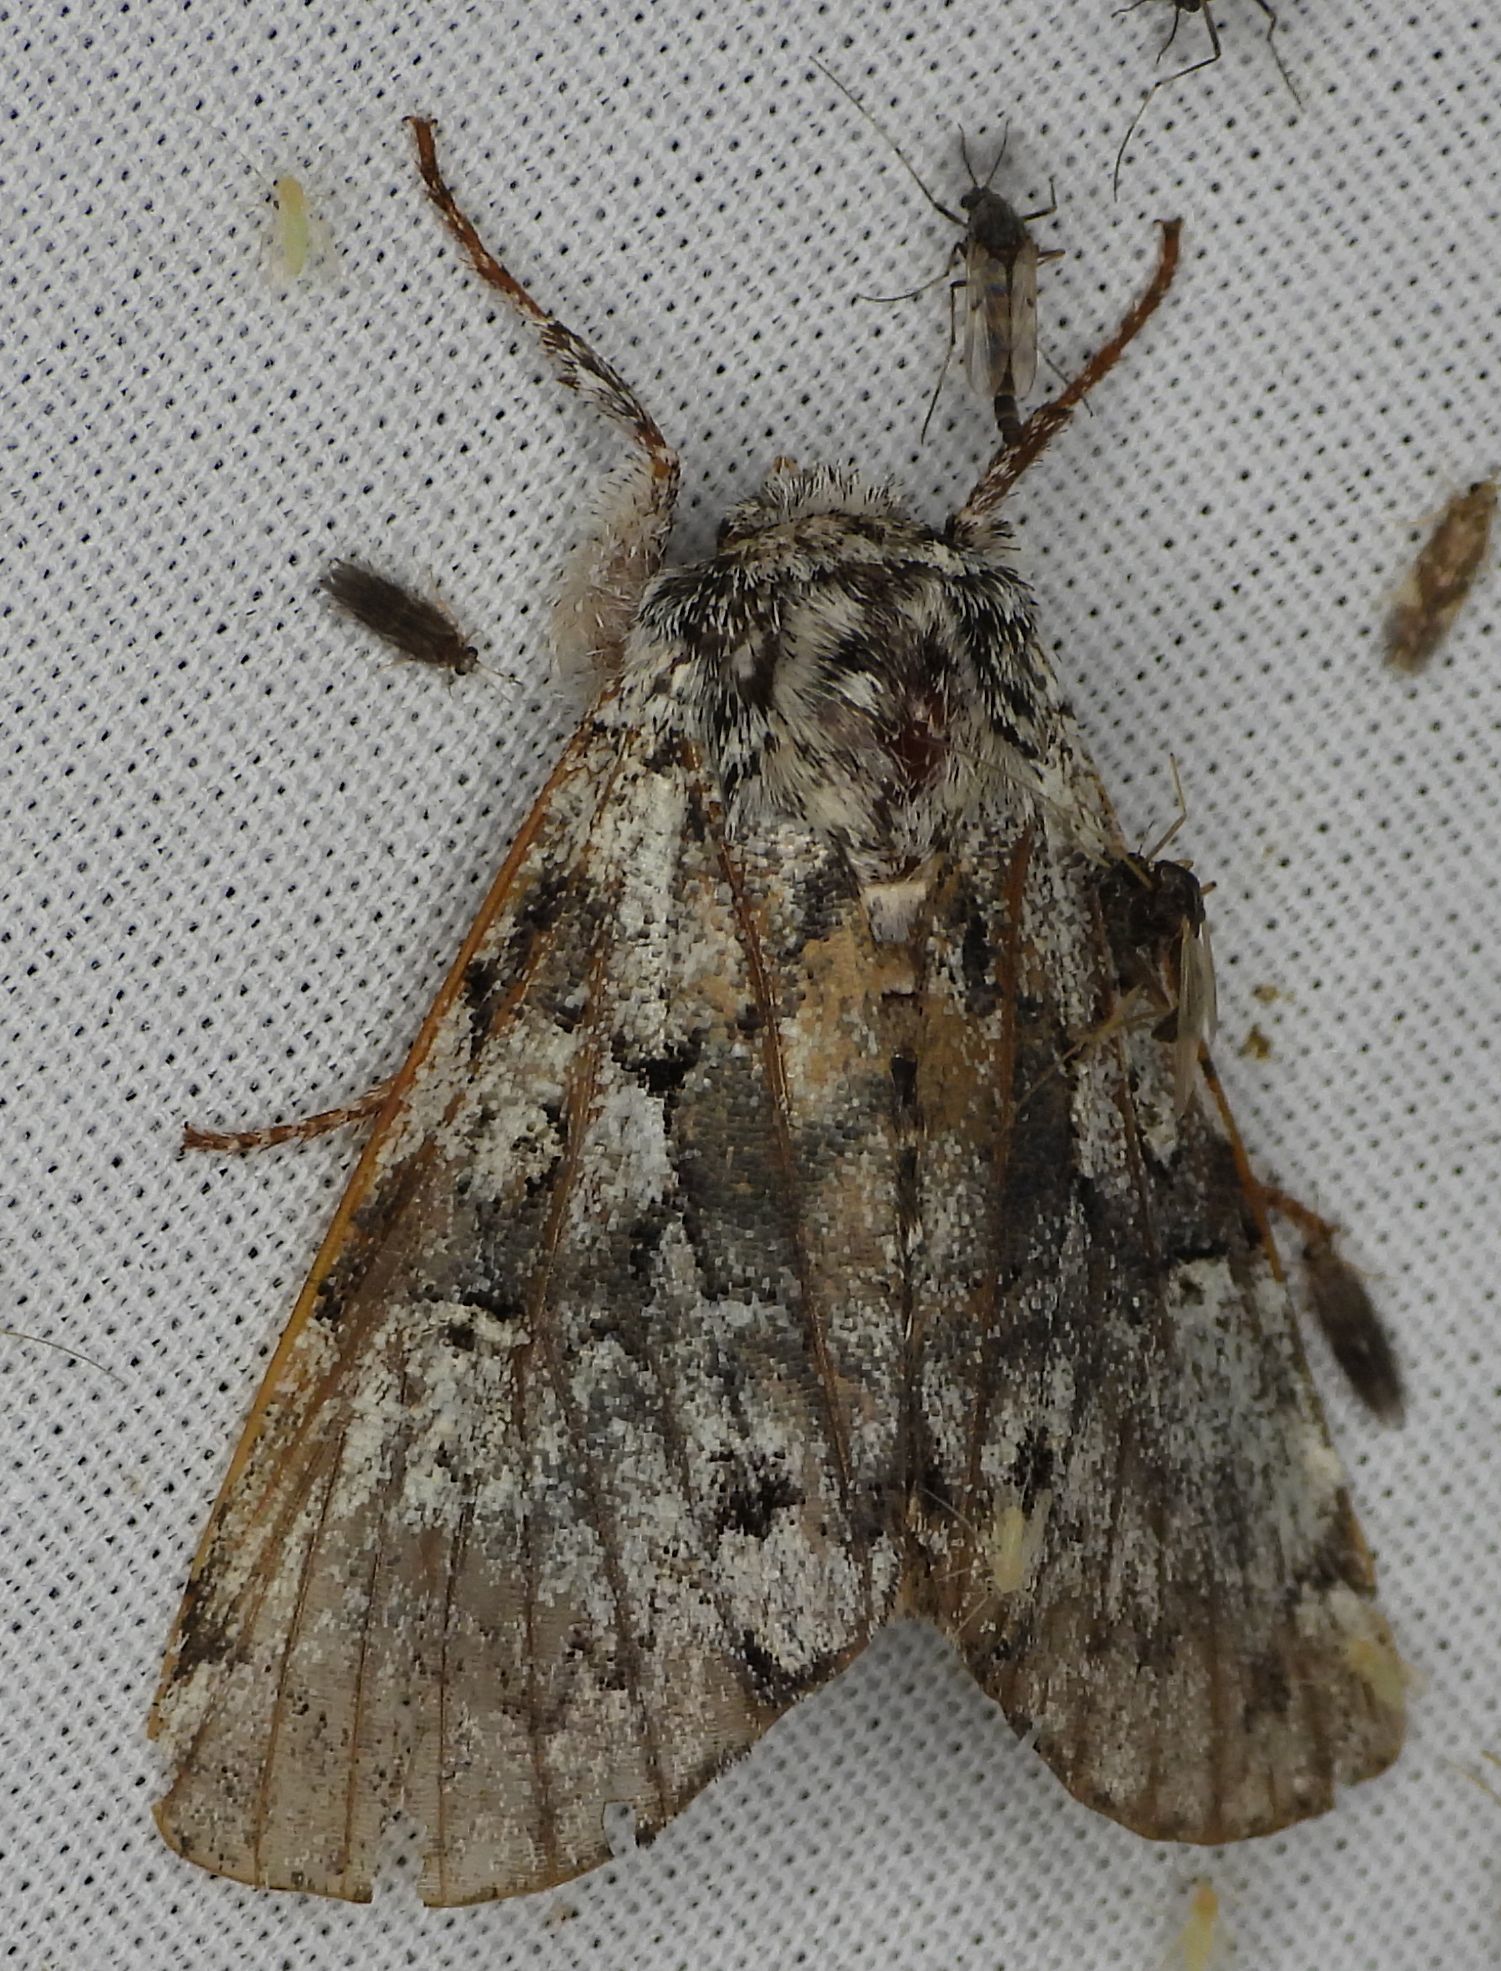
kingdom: Animalia
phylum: Arthropoda
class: Insecta
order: Lepidoptera
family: Noctuidae
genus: Panthea
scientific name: Panthea acronyctoides
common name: Black zigzag moth
